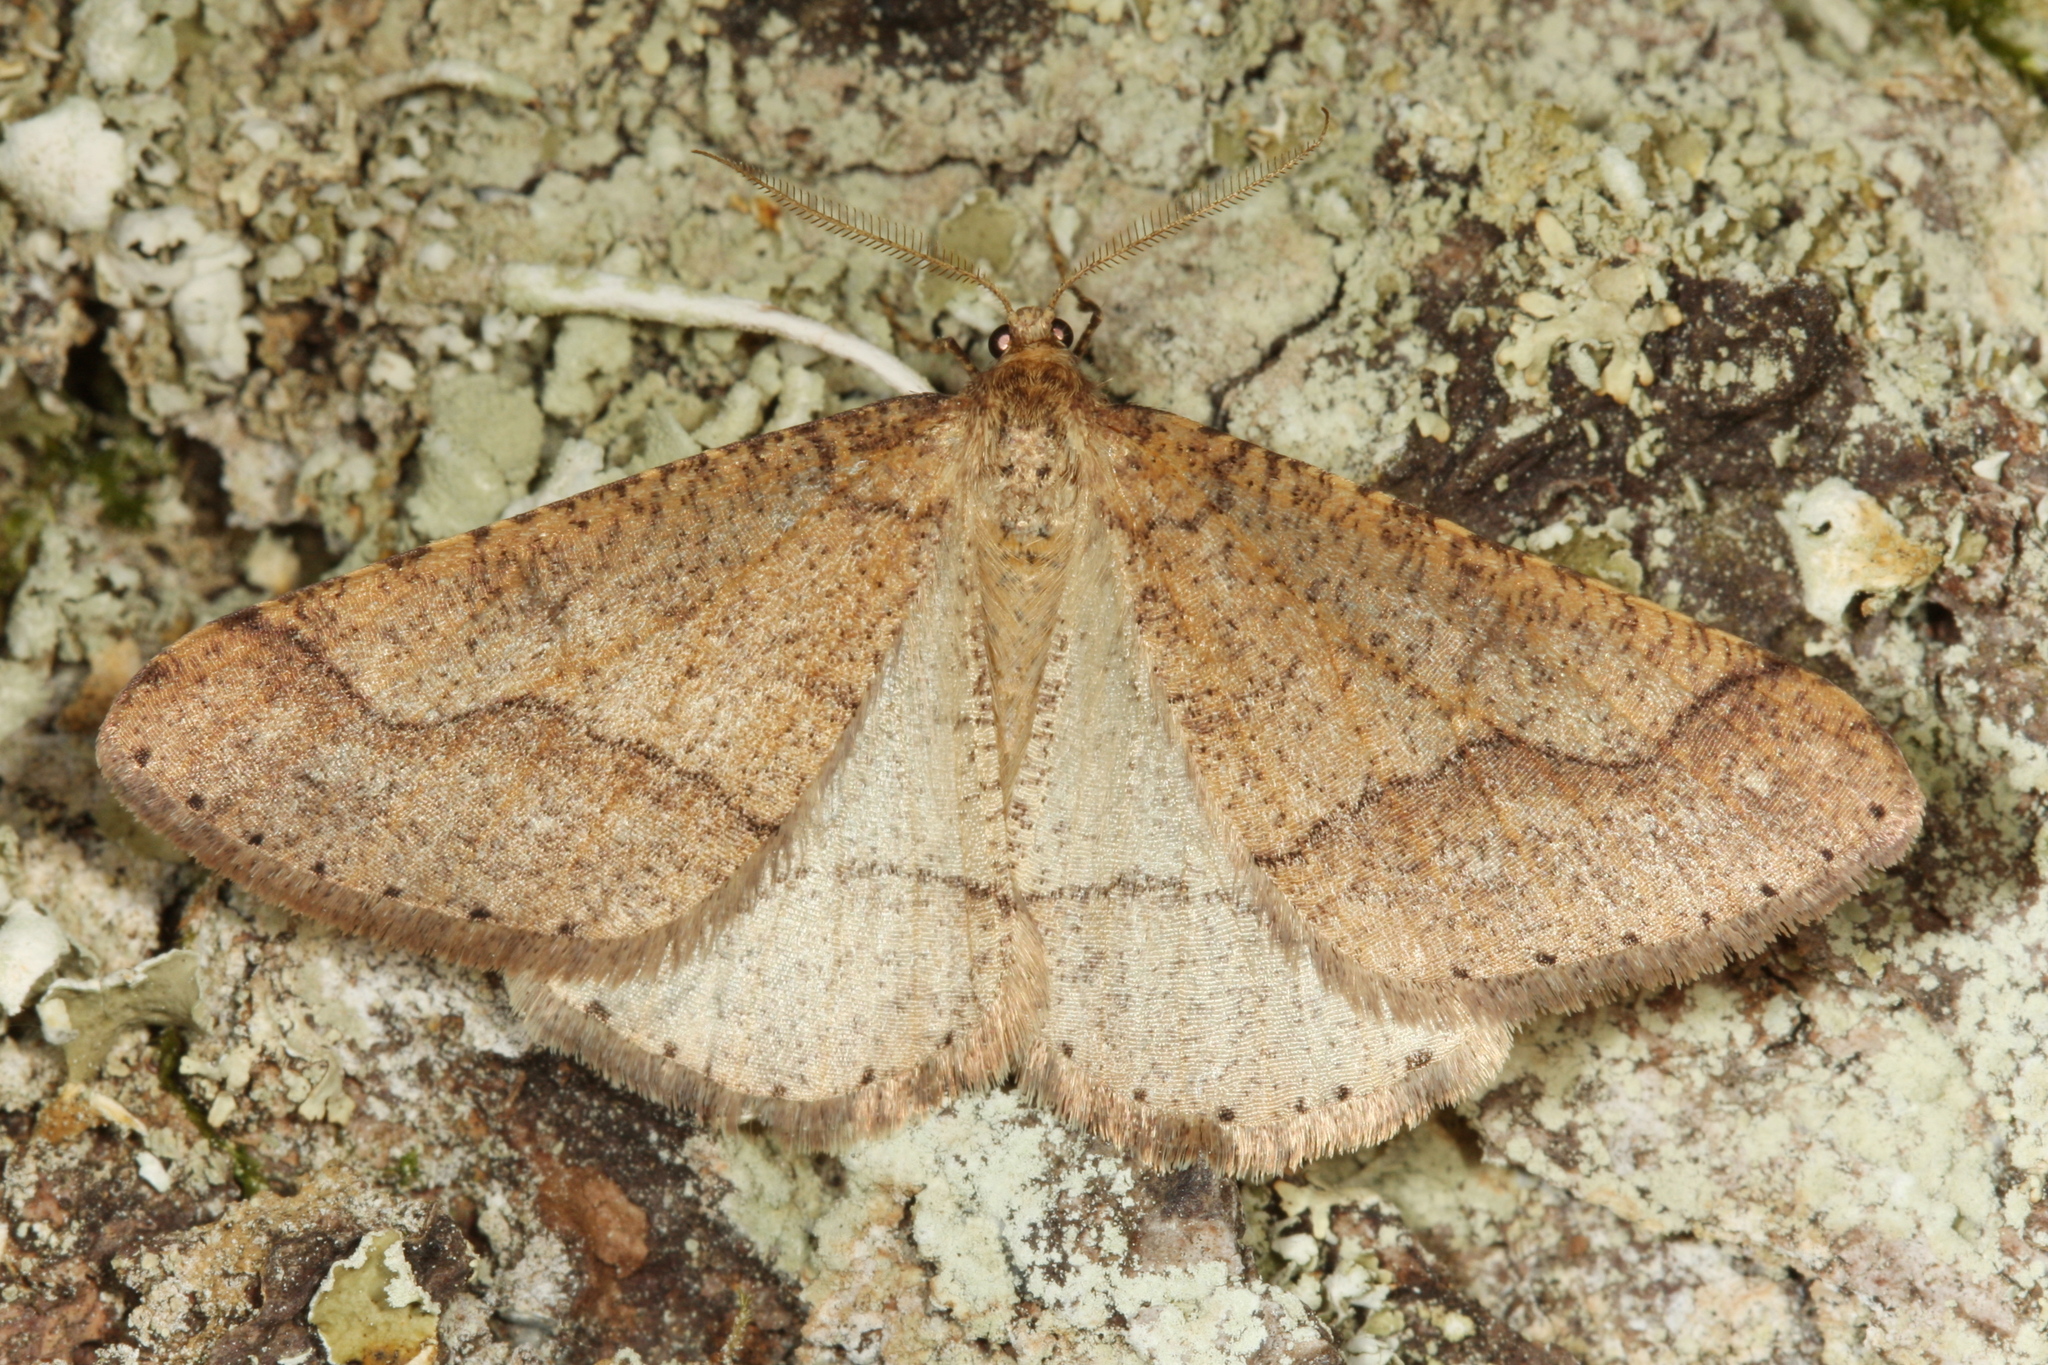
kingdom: Animalia
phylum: Arthropoda
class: Insecta
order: Lepidoptera
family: Geometridae
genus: Agriopis
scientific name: Agriopis marginaria
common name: Dotted border
